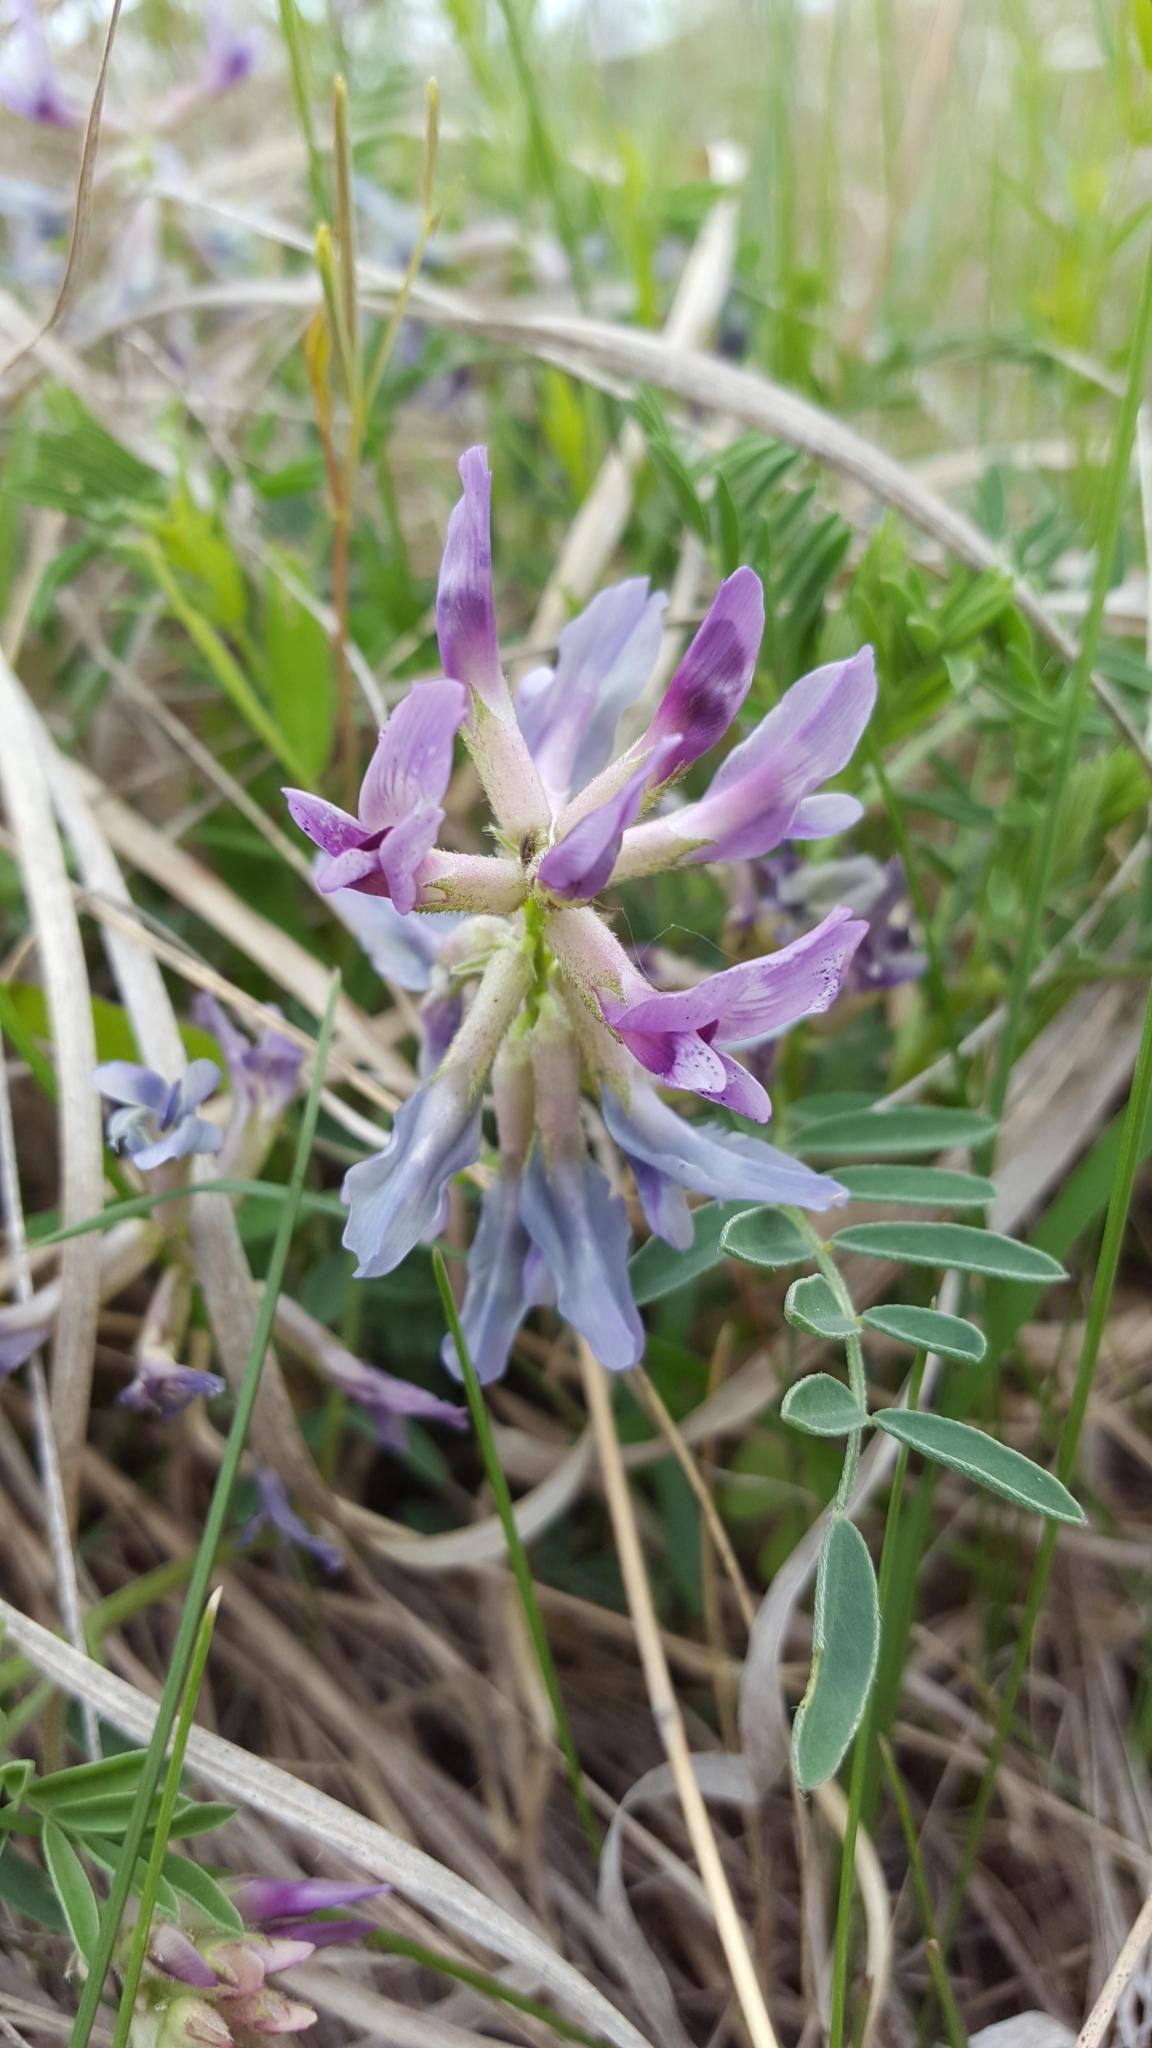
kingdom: Plantae
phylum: Tracheophyta
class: Magnoliopsida
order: Fabales
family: Fabaceae
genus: Astragalus
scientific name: Astragalus crassicarpus
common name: Ground-plum milk-vetch
